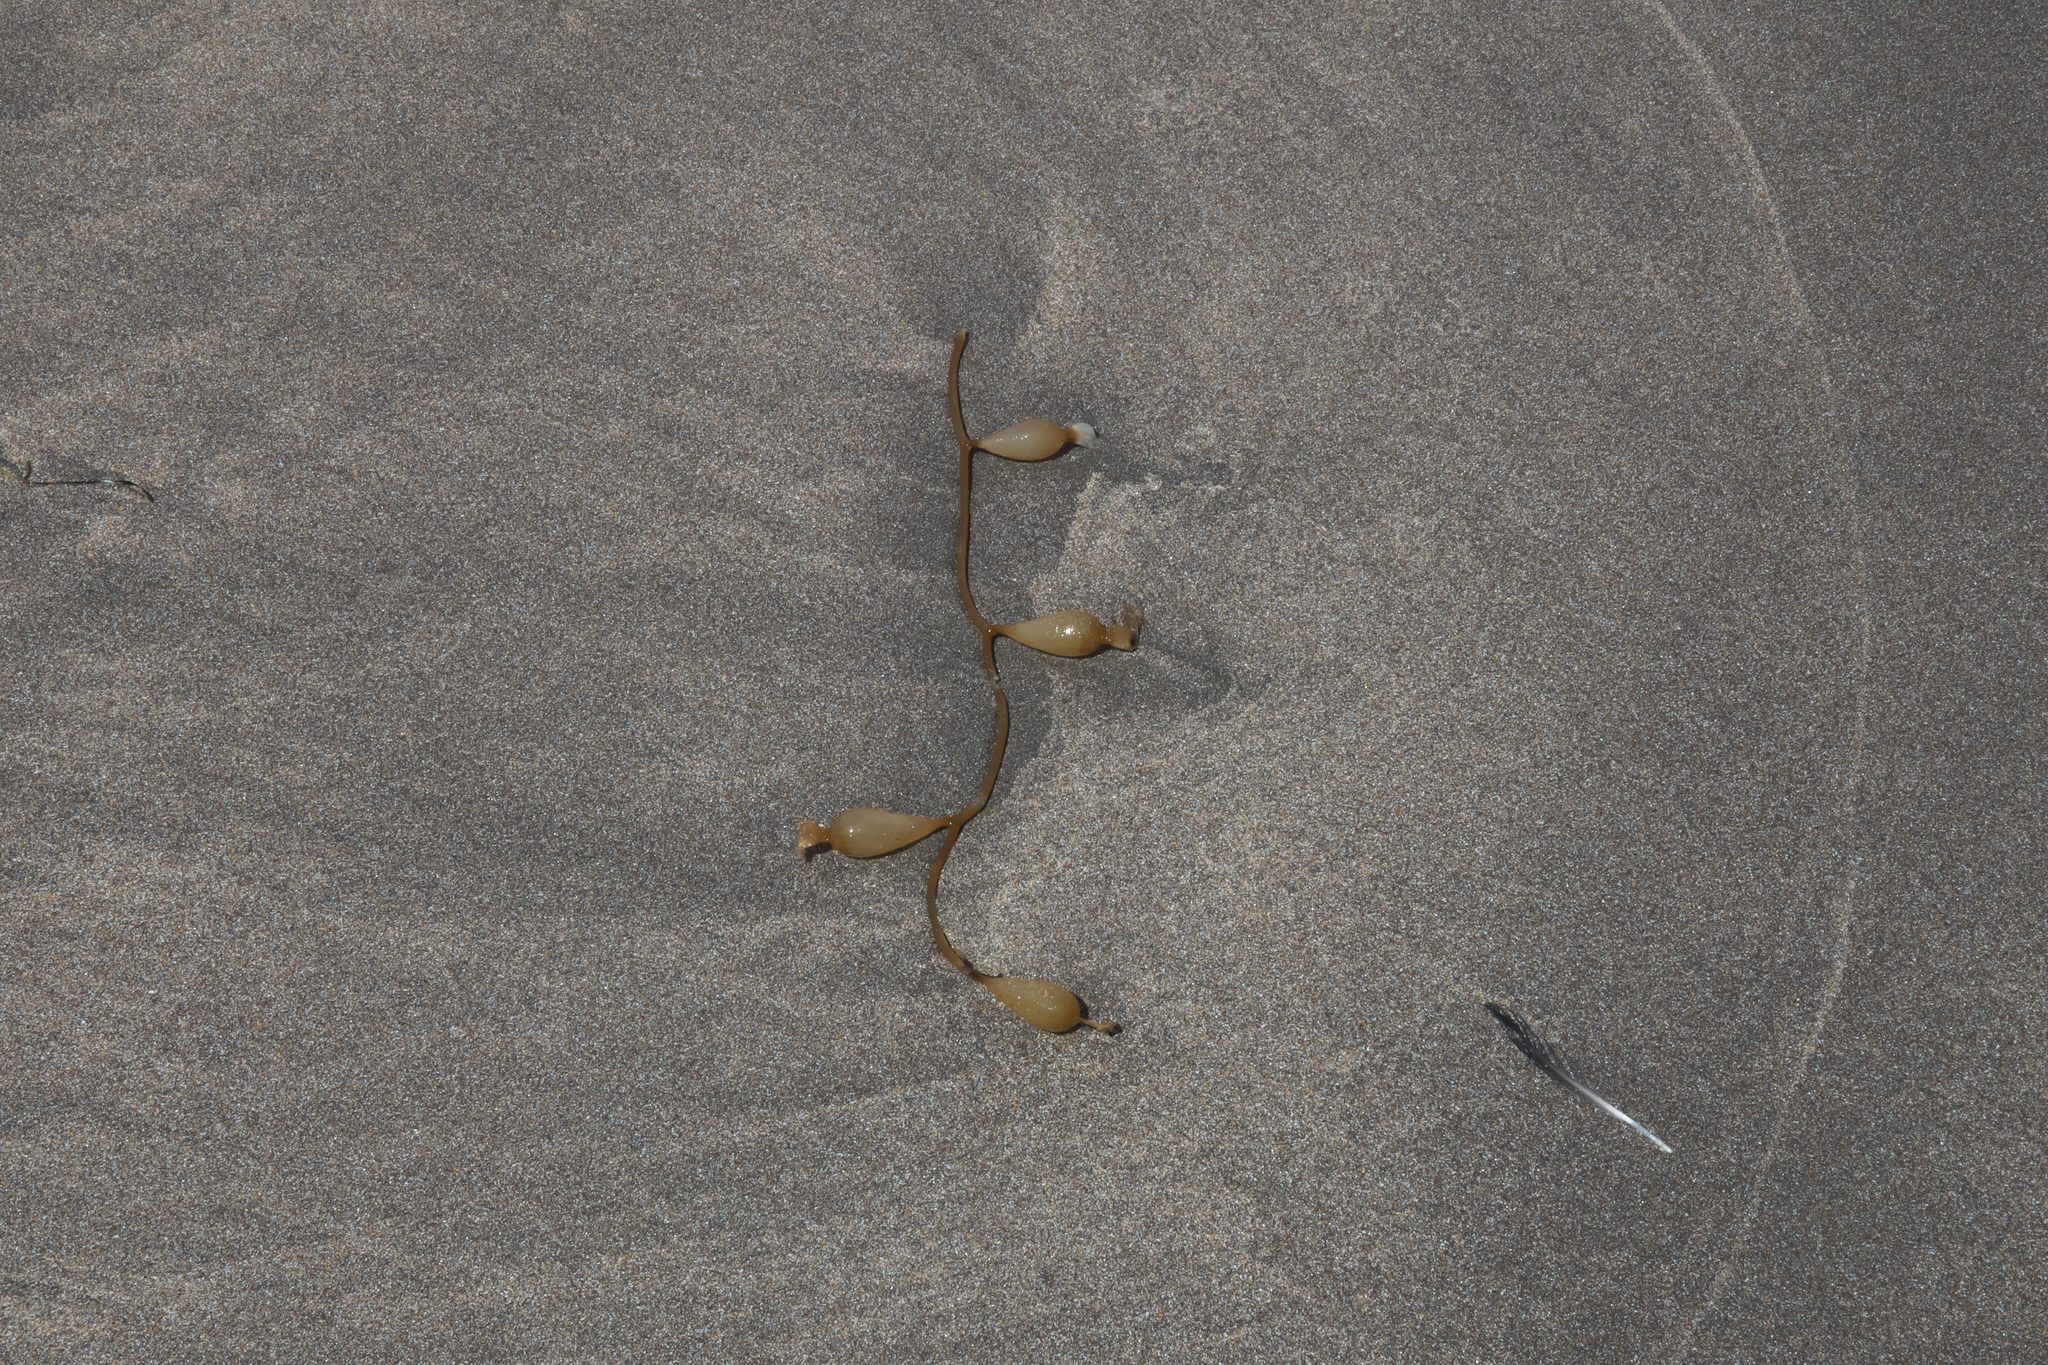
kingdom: Chromista
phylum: Ochrophyta
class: Phaeophyceae
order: Laminariales
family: Laminariaceae
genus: Macrocystis
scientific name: Macrocystis pyrifera
